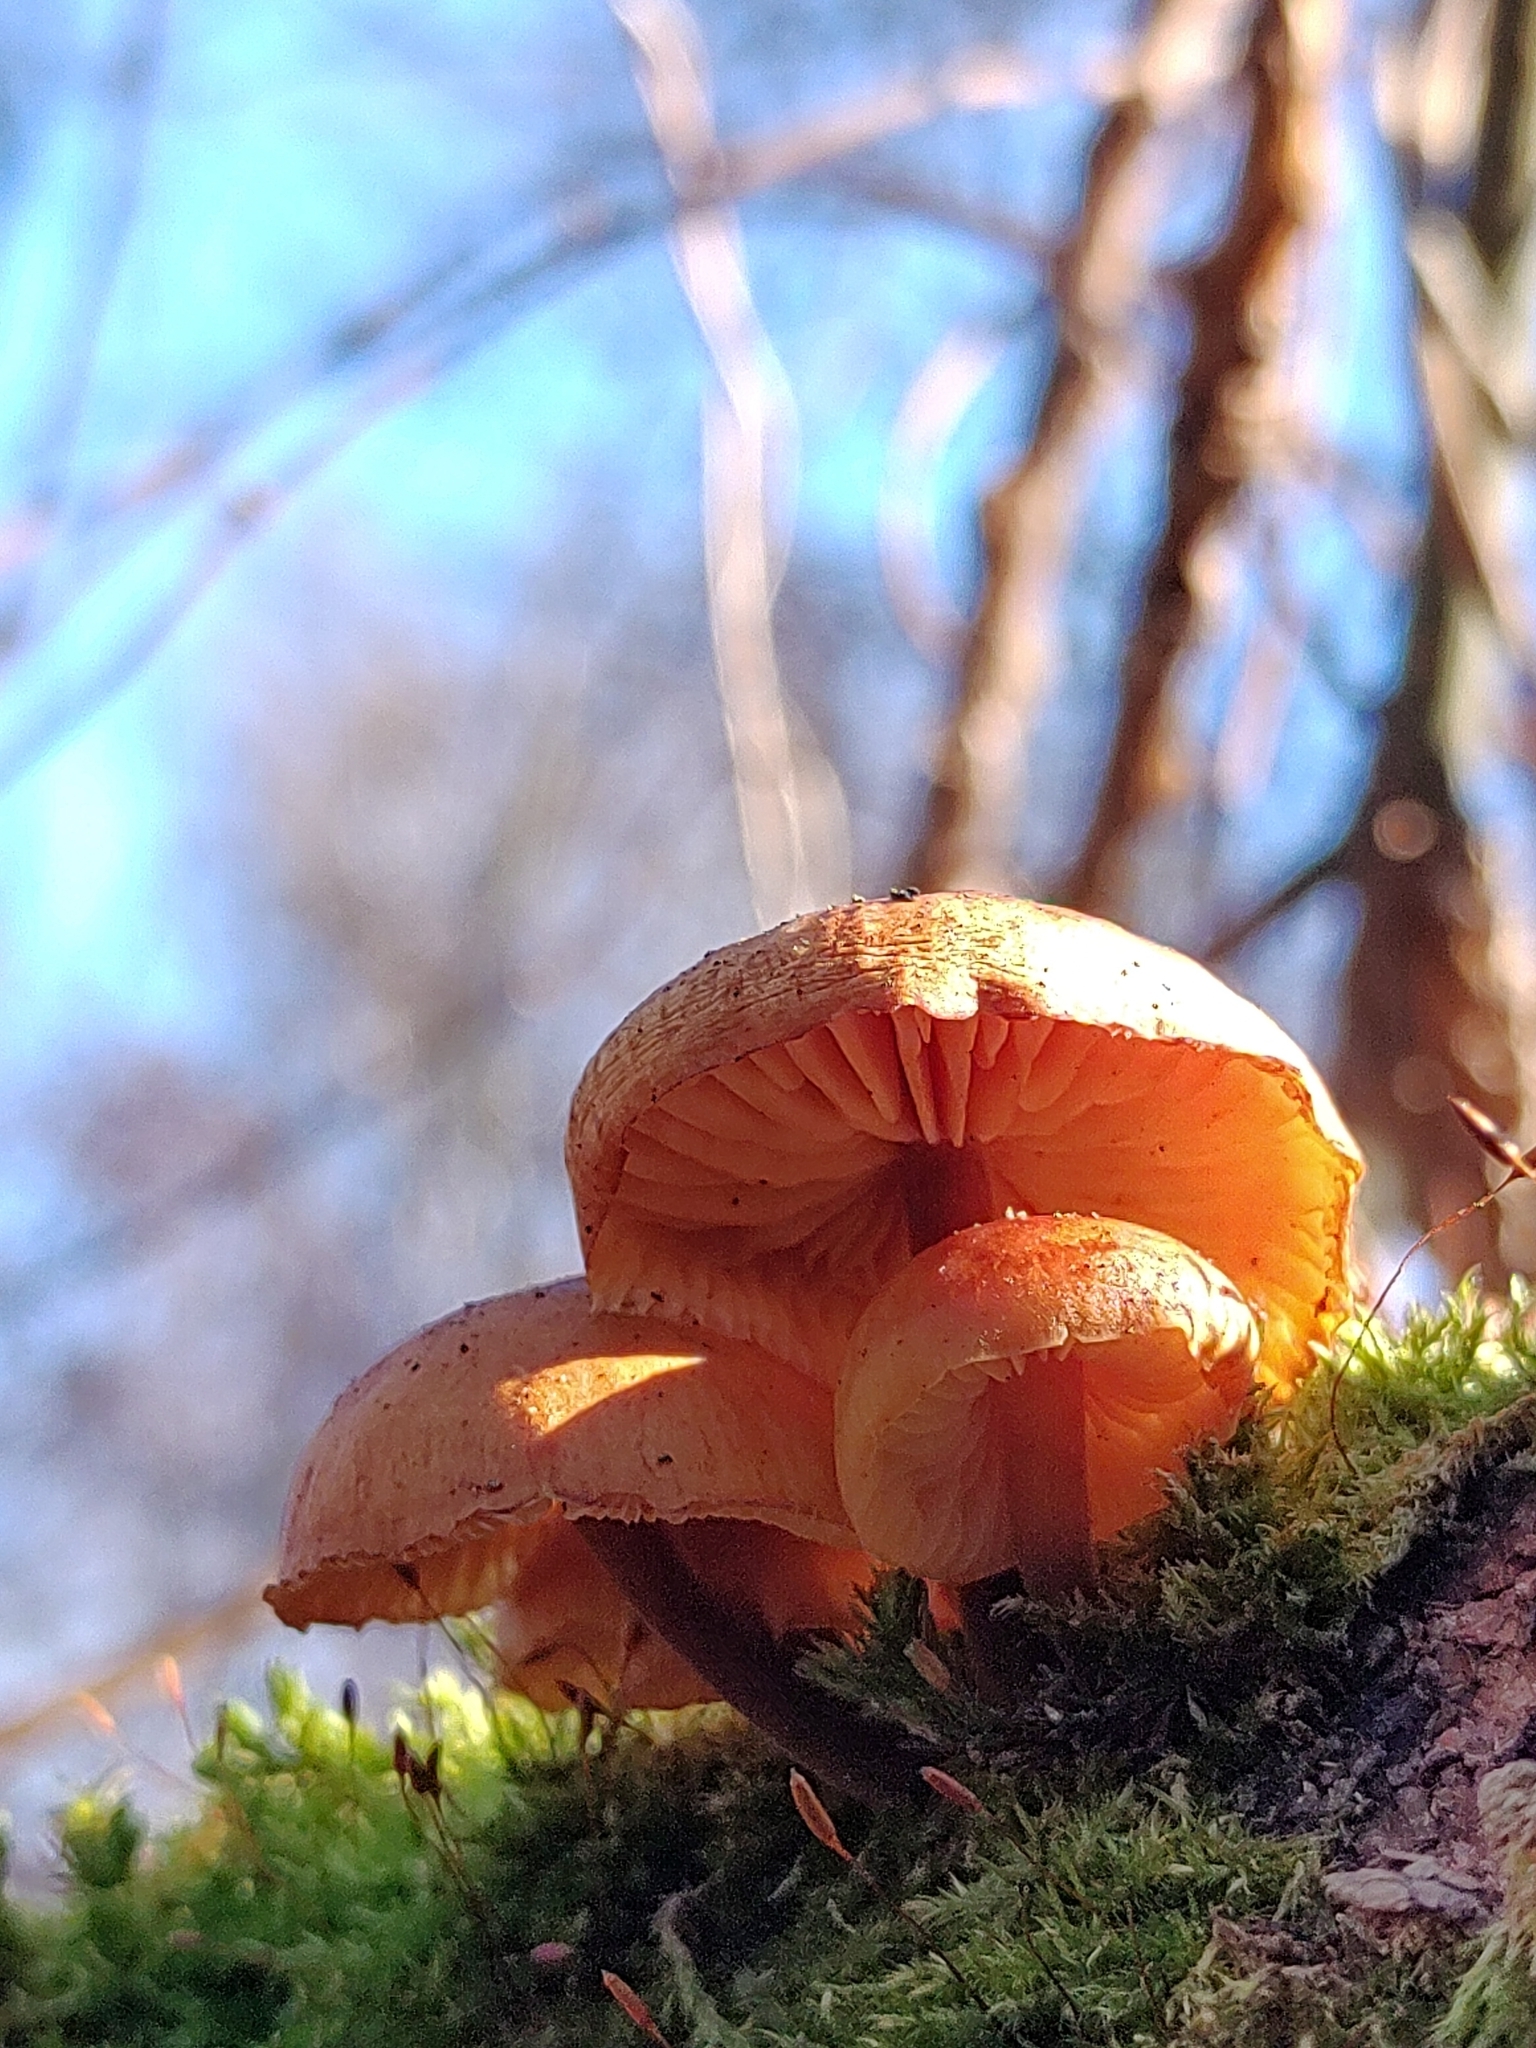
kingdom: Fungi
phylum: Basidiomycota
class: Agaricomycetes
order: Agaricales
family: Physalacriaceae
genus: Flammulina
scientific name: Flammulina
